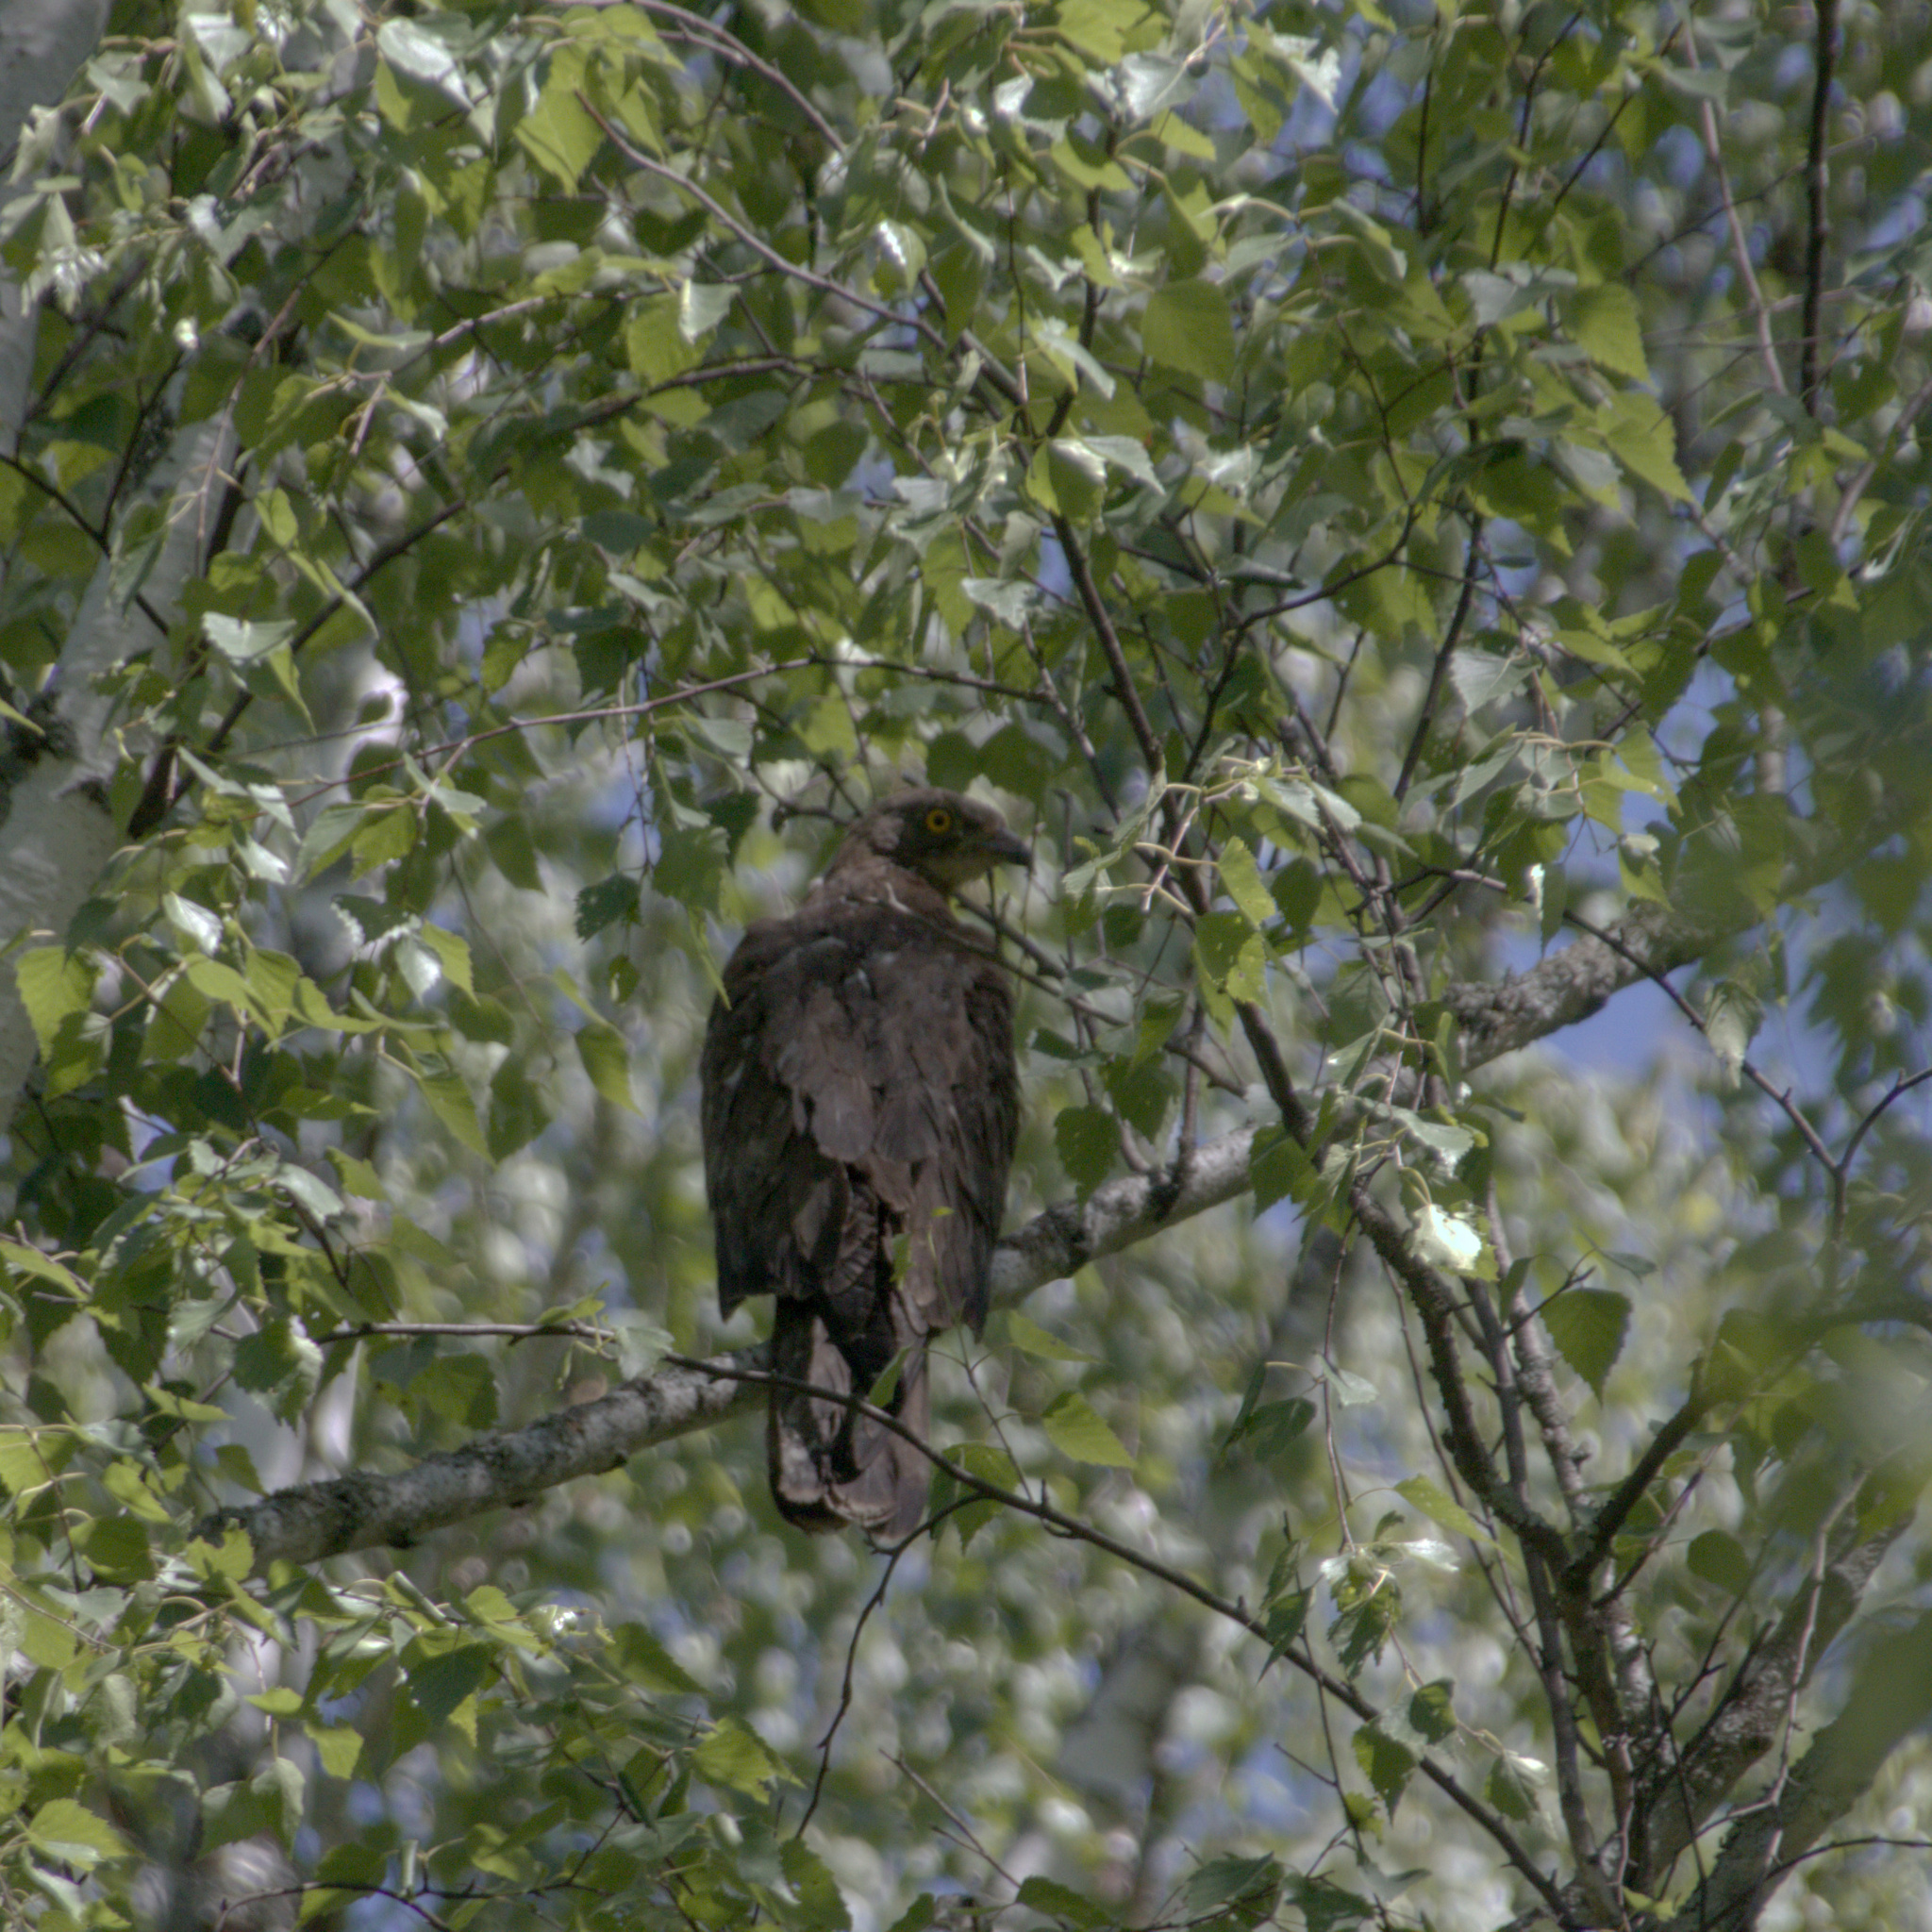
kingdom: Animalia
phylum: Chordata
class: Aves
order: Accipitriformes
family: Accipitridae
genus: Pernis
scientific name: Pernis apivorus
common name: European honey buzzard
